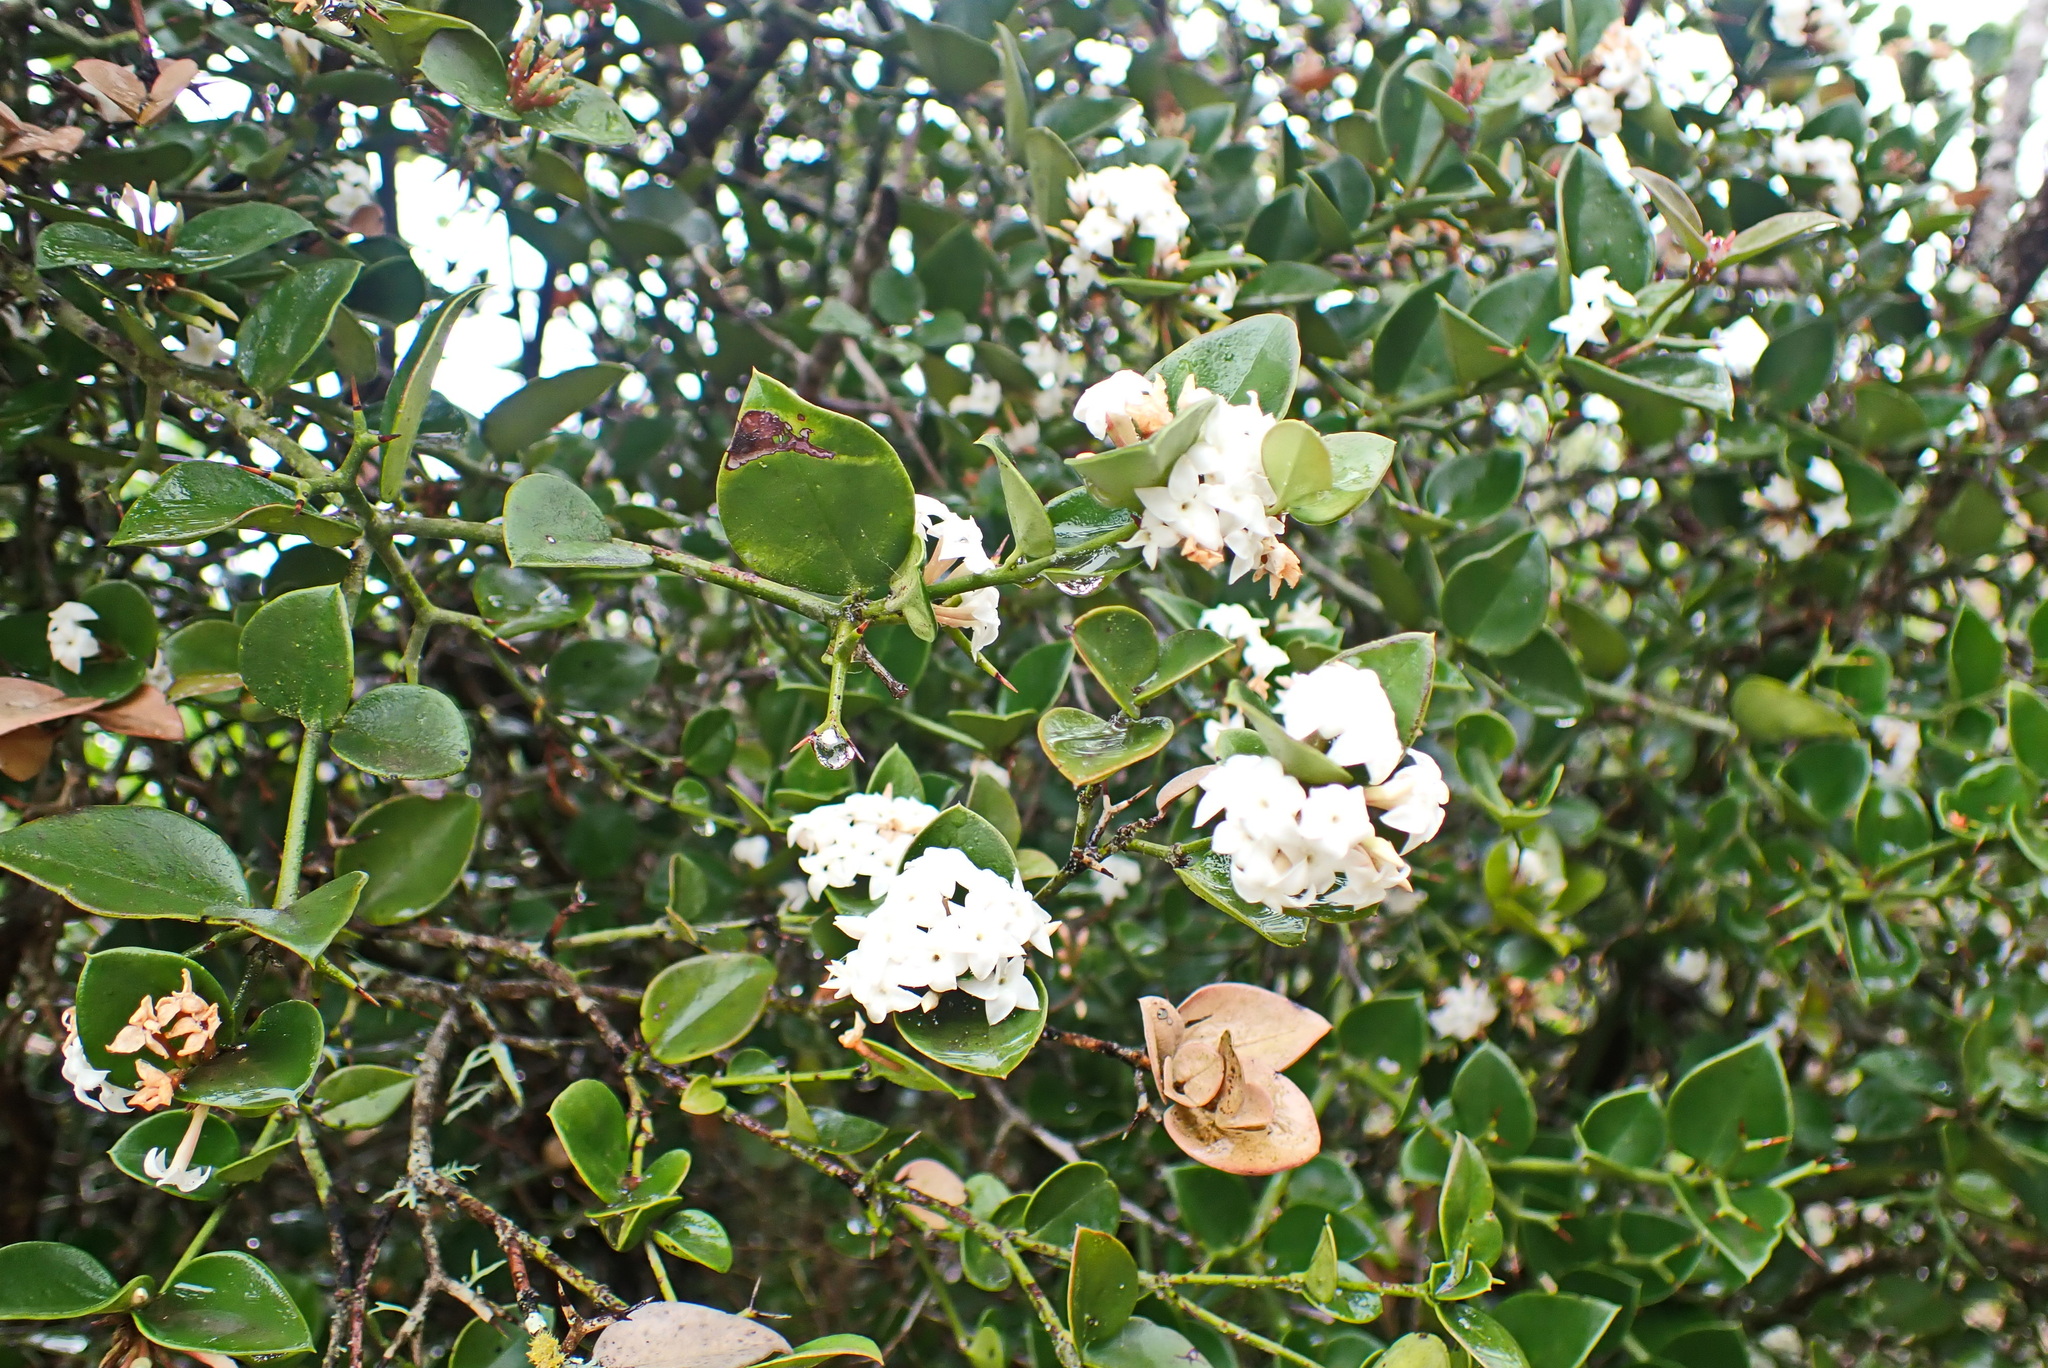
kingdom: Plantae
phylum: Tracheophyta
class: Magnoliopsida
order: Gentianales
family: Apocynaceae
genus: Carissa
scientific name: Carissa bispinosa
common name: Forest num-num
